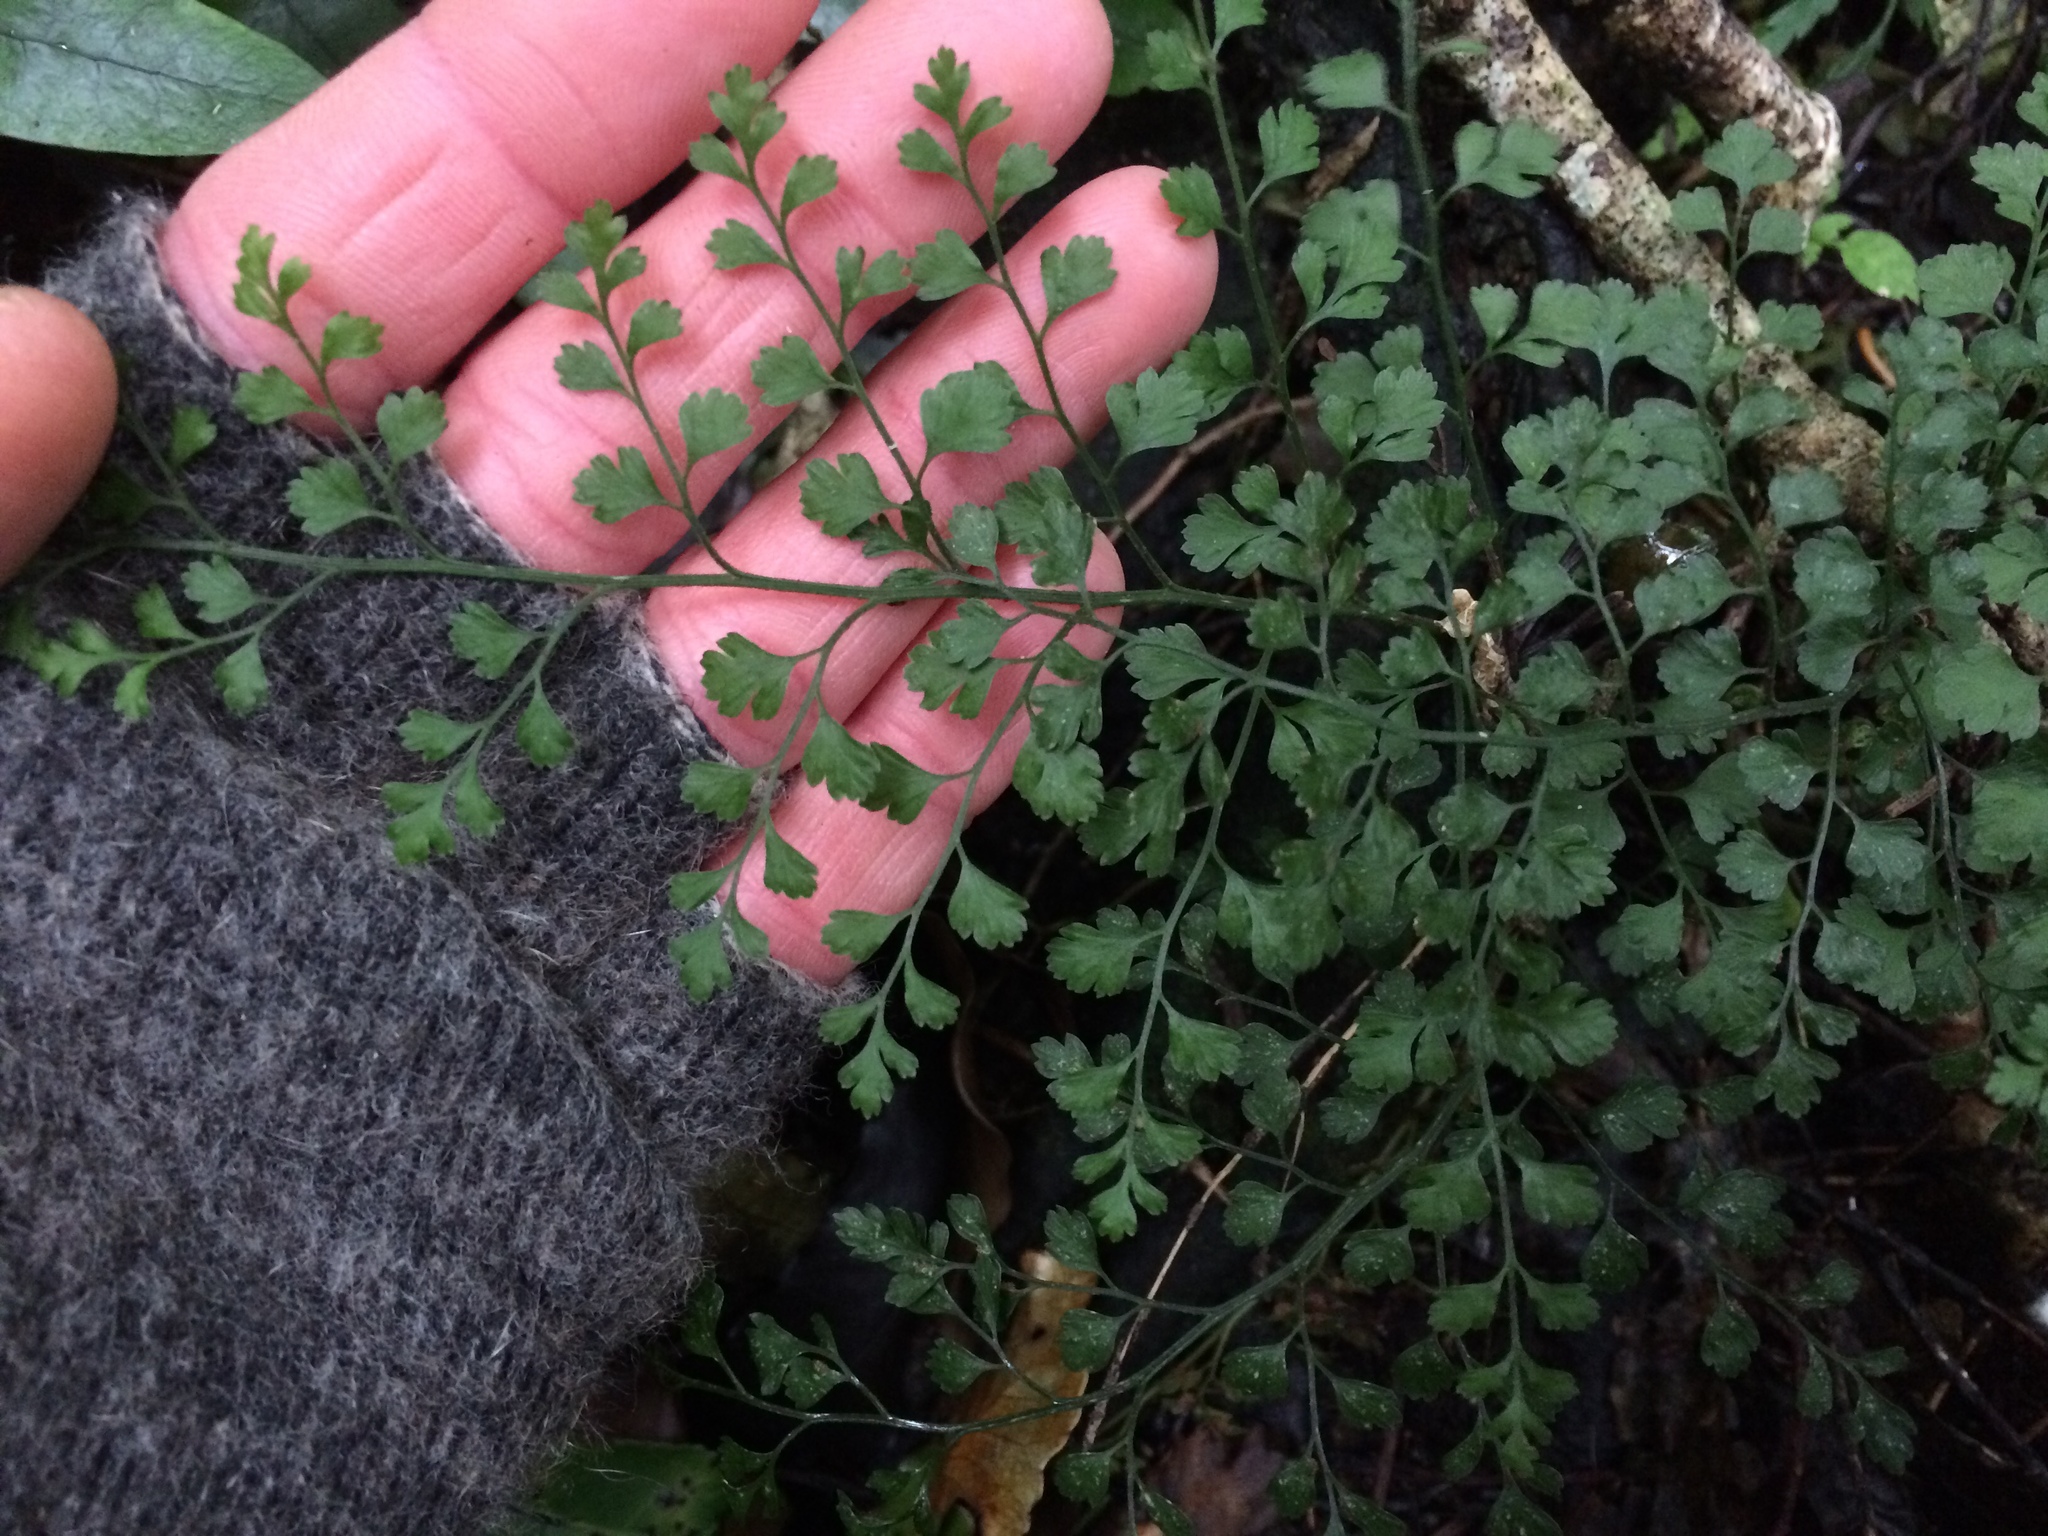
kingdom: Plantae
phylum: Tracheophyta
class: Polypodiopsida
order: Polypodiales
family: Aspleniaceae
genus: Asplenium
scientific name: Asplenium hookerianum
